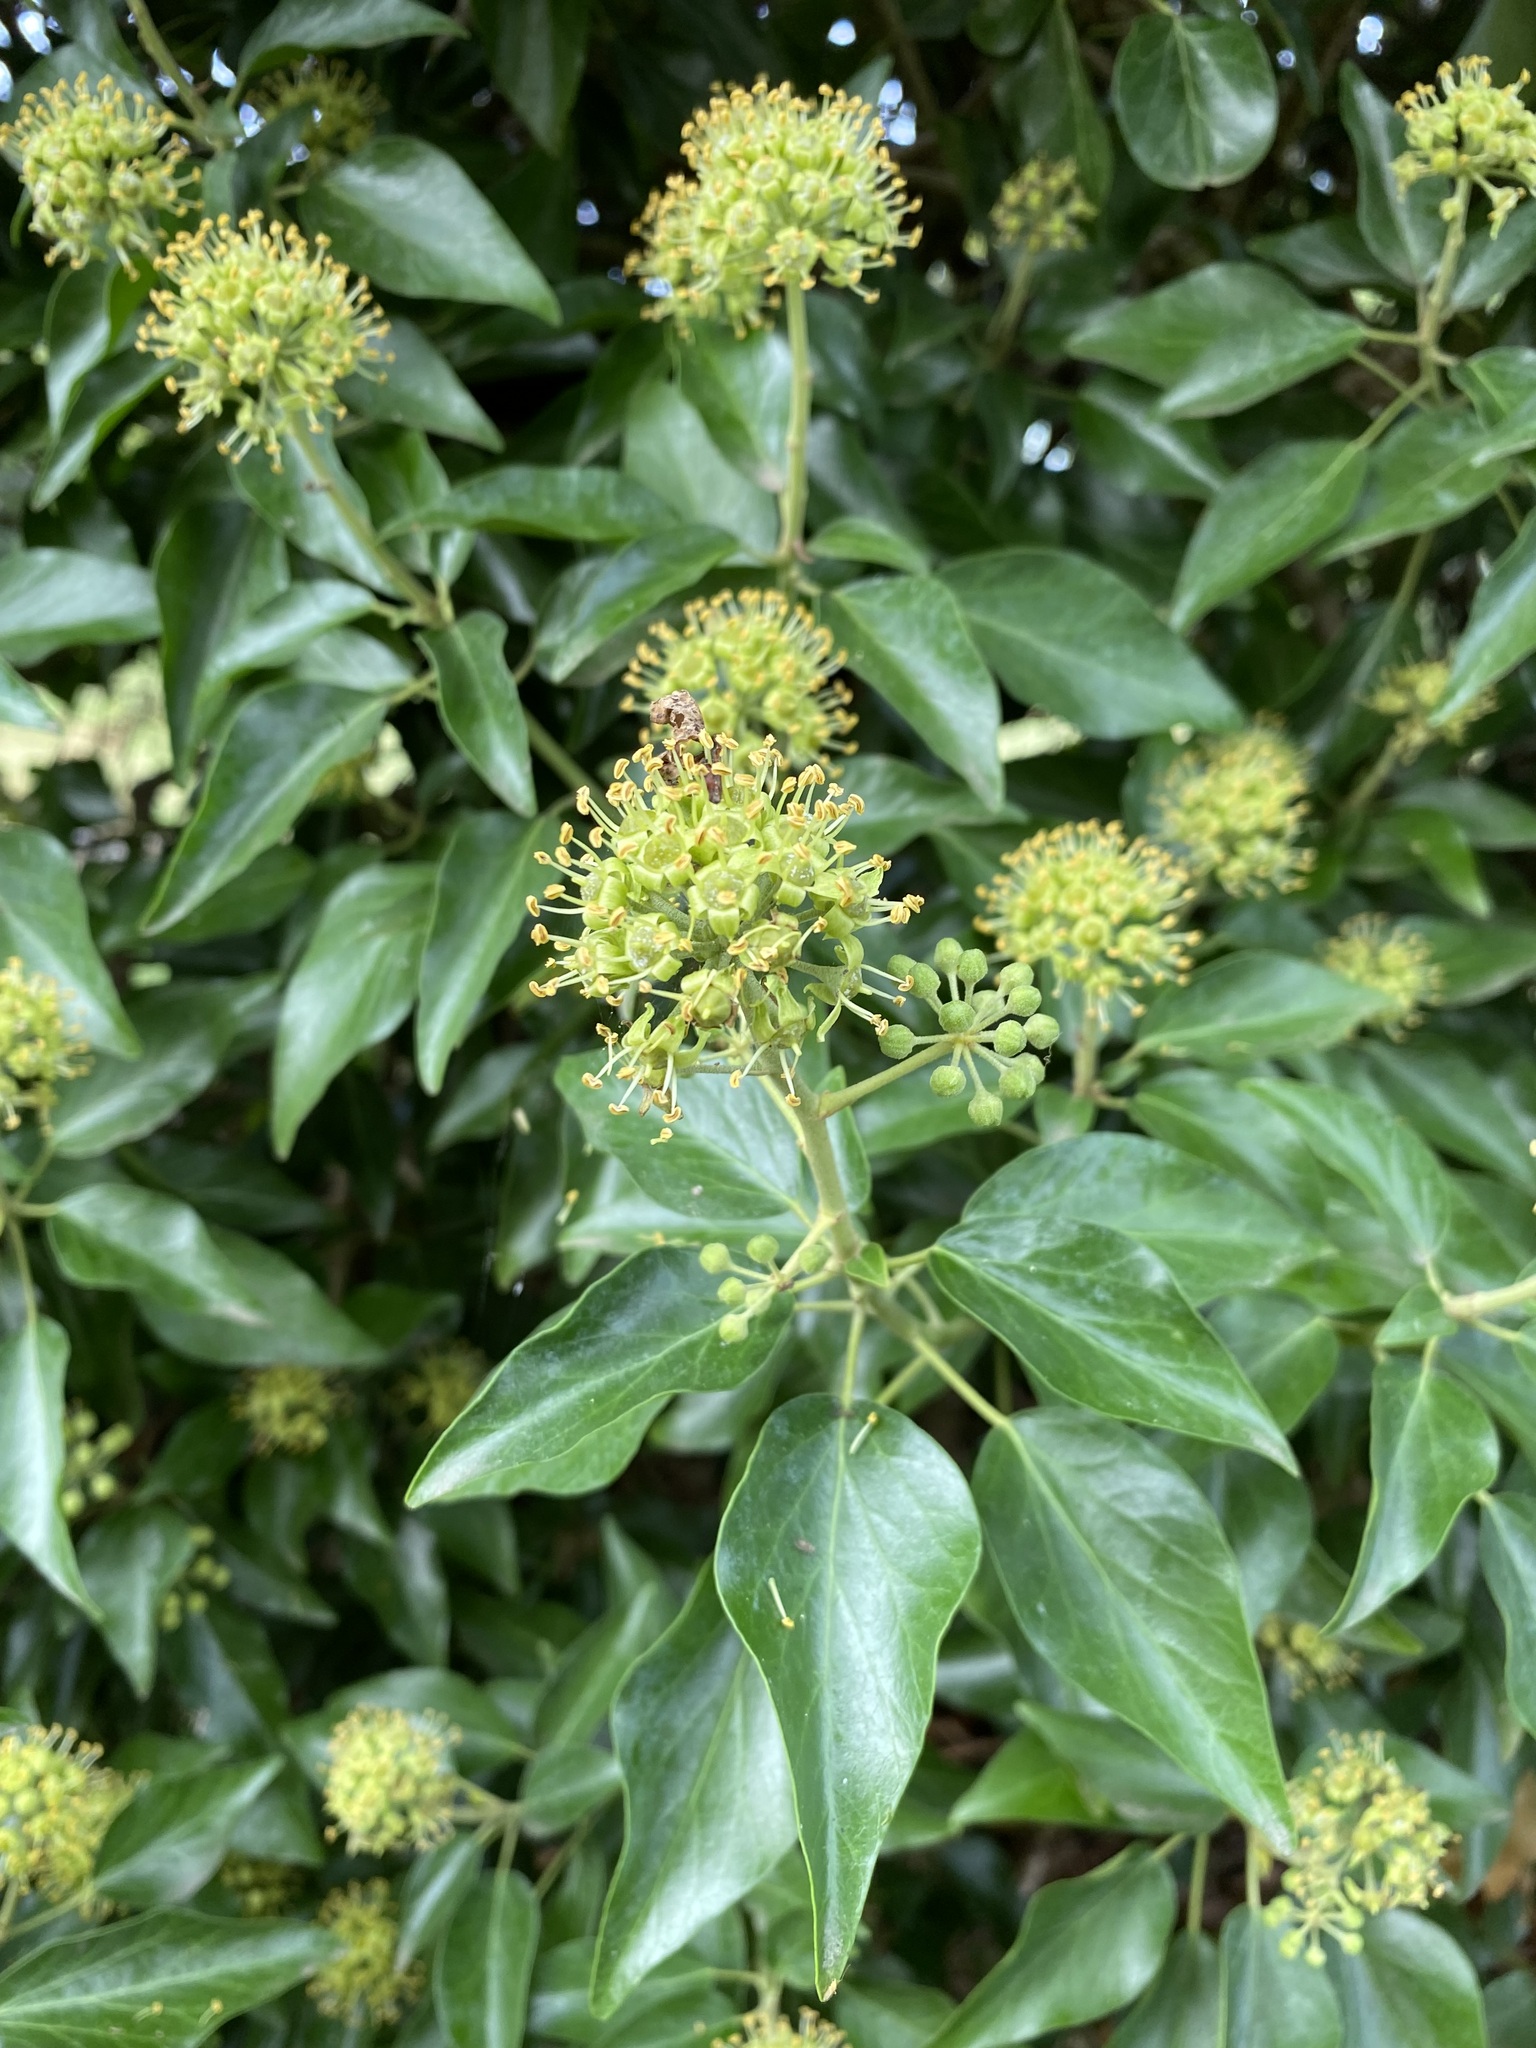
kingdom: Plantae
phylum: Tracheophyta
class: Magnoliopsida
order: Apiales
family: Araliaceae
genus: Hedera
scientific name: Hedera helix
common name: Ivy
